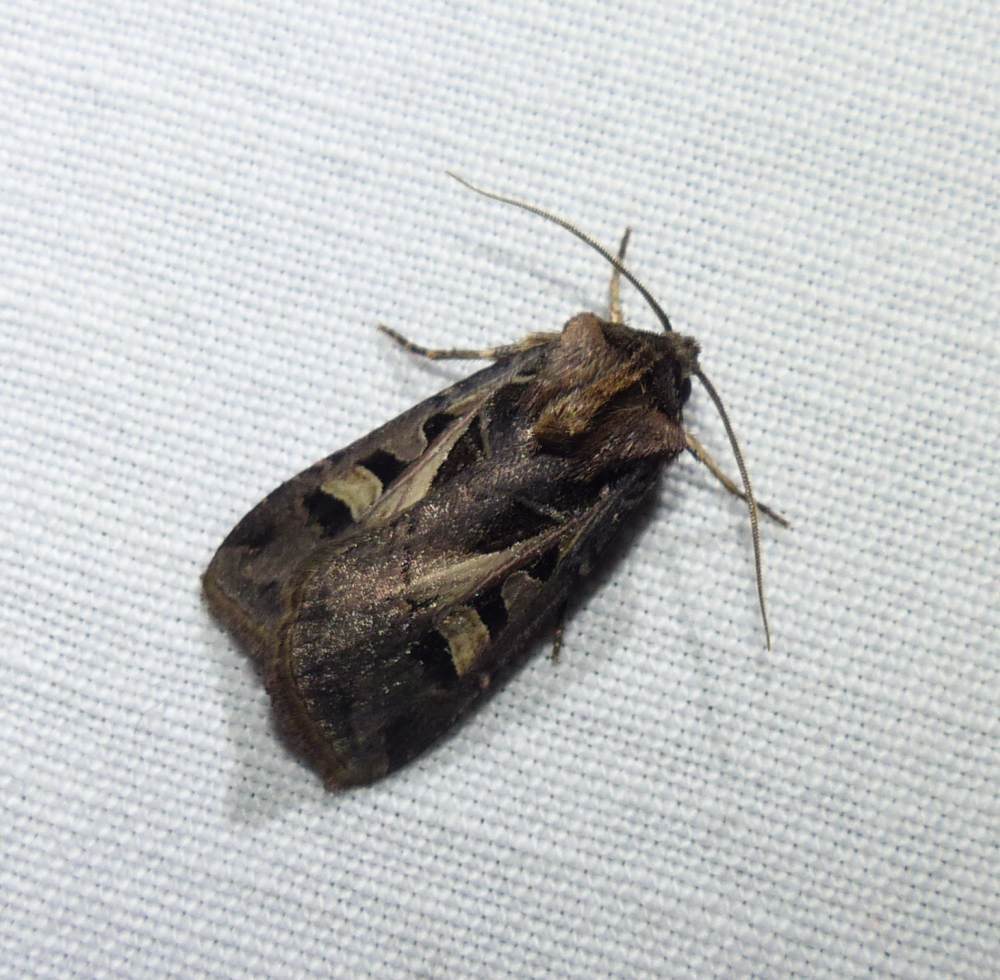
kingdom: Animalia
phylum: Arthropoda
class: Insecta
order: Lepidoptera
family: Noctuidae
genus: Feltia
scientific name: Feltia herilis
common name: Master's dart
